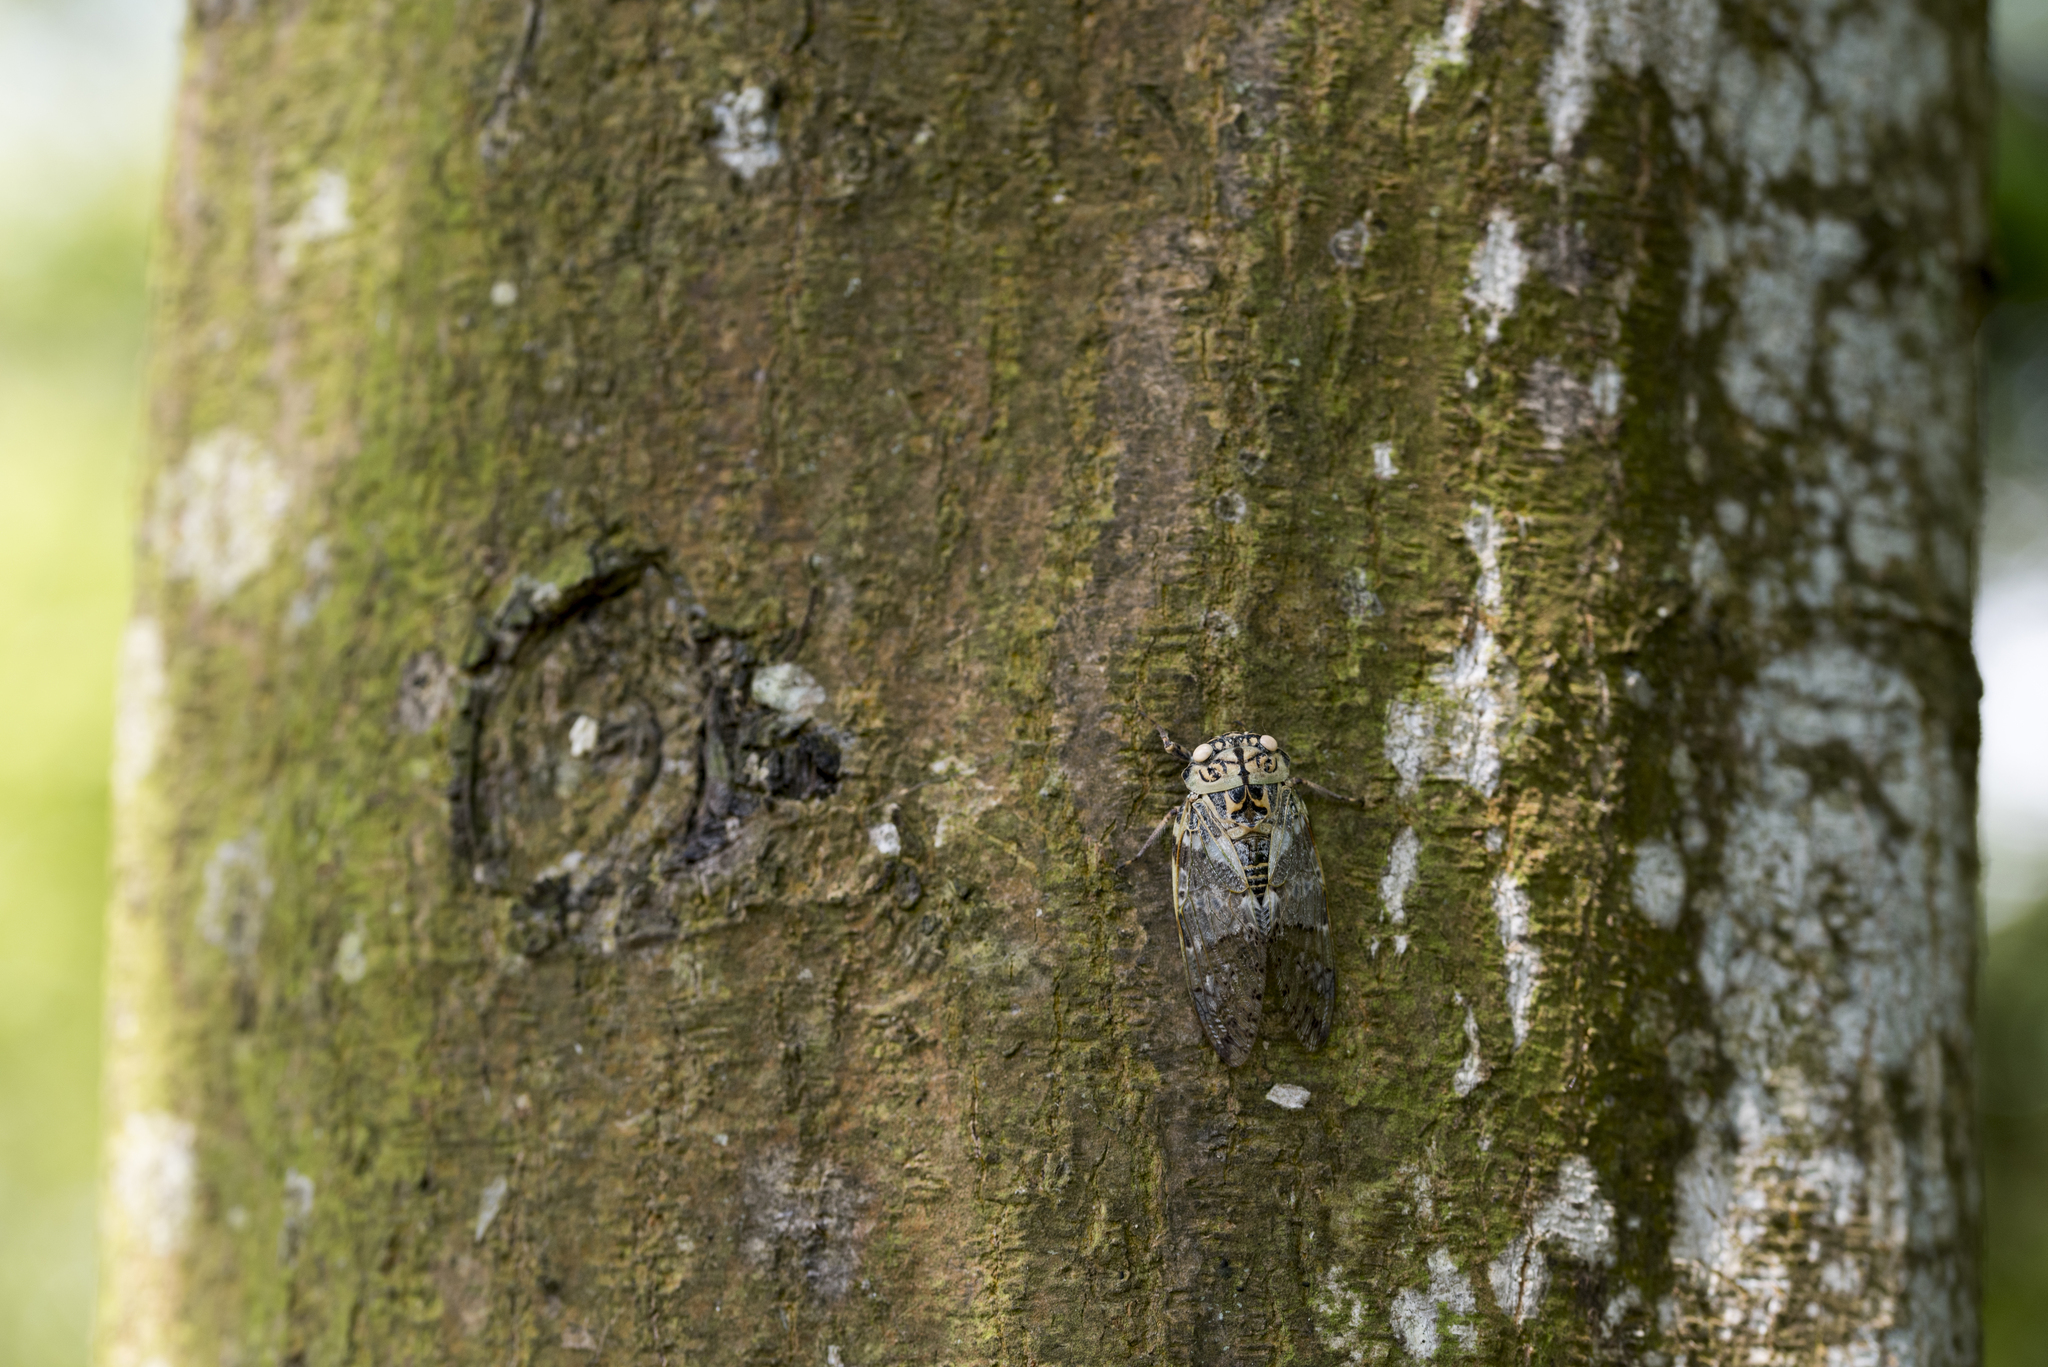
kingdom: Animalia
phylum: Arthropoda
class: Insecta
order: Hemiptera
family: Cicadidae
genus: Platypleura
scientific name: Platypleura takasagona
